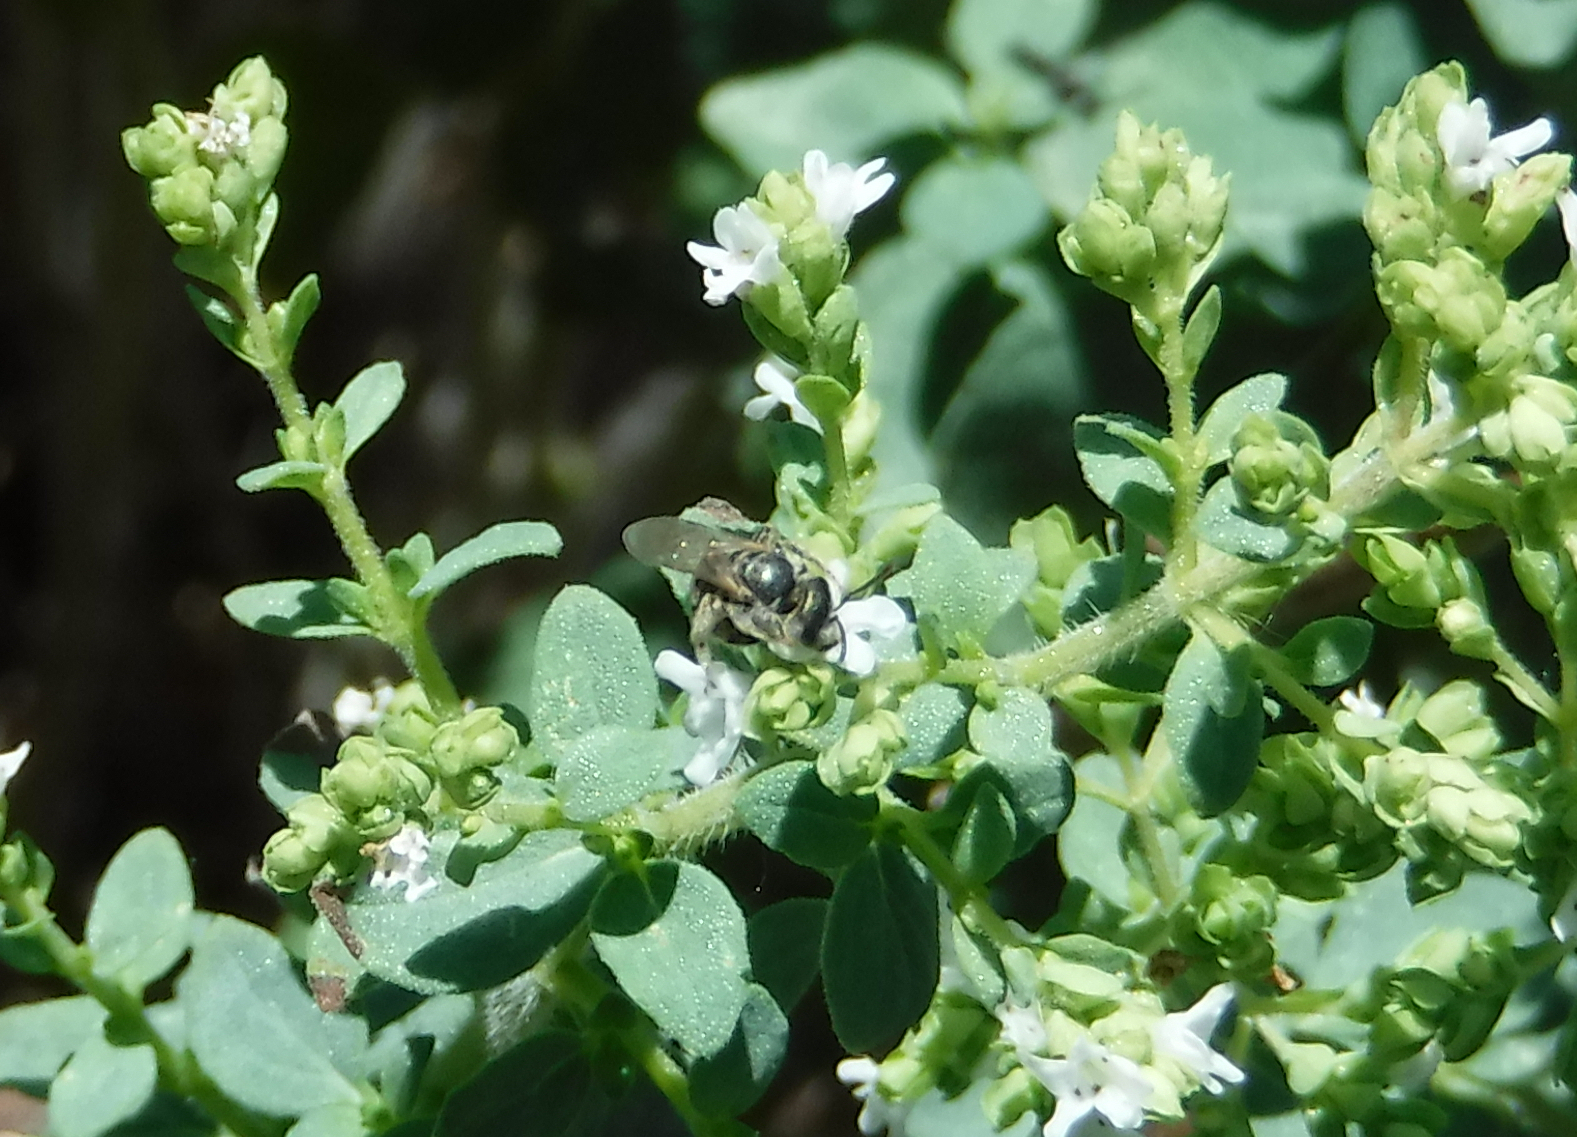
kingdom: Animalia
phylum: Arthropoda
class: Insecta
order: Hymenoptera
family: Halictidae
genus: Halictus
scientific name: Halictus tripartitus
